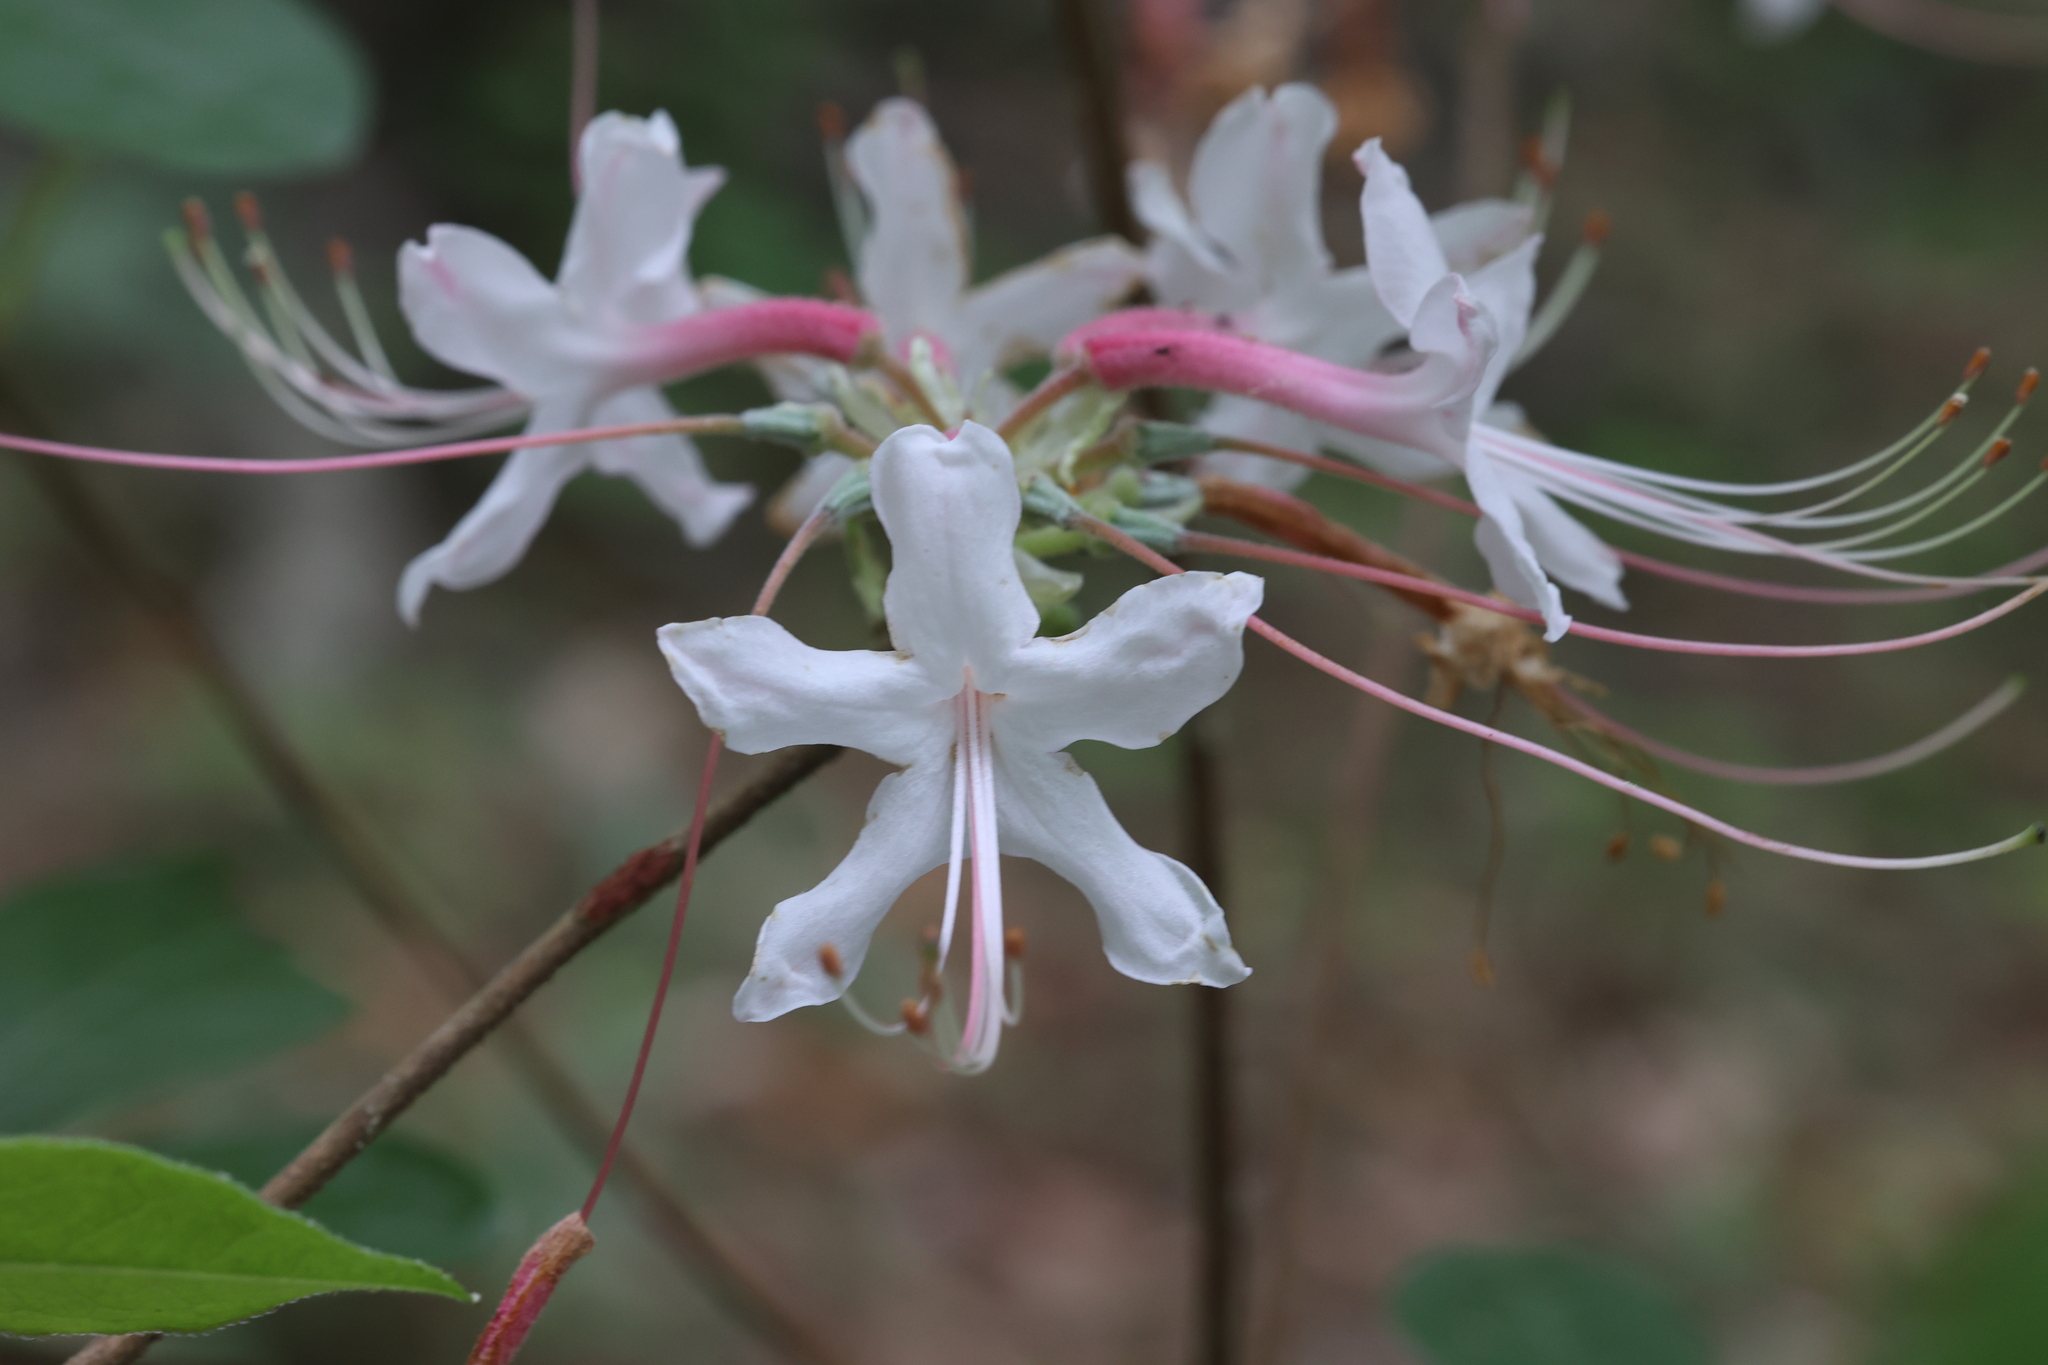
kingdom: Plantae
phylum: Tracheophyta
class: Magnoliopsida
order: Ericales
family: Ericaceae
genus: Rhododendron
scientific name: Rhododendron canescens
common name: Mountain azalea
